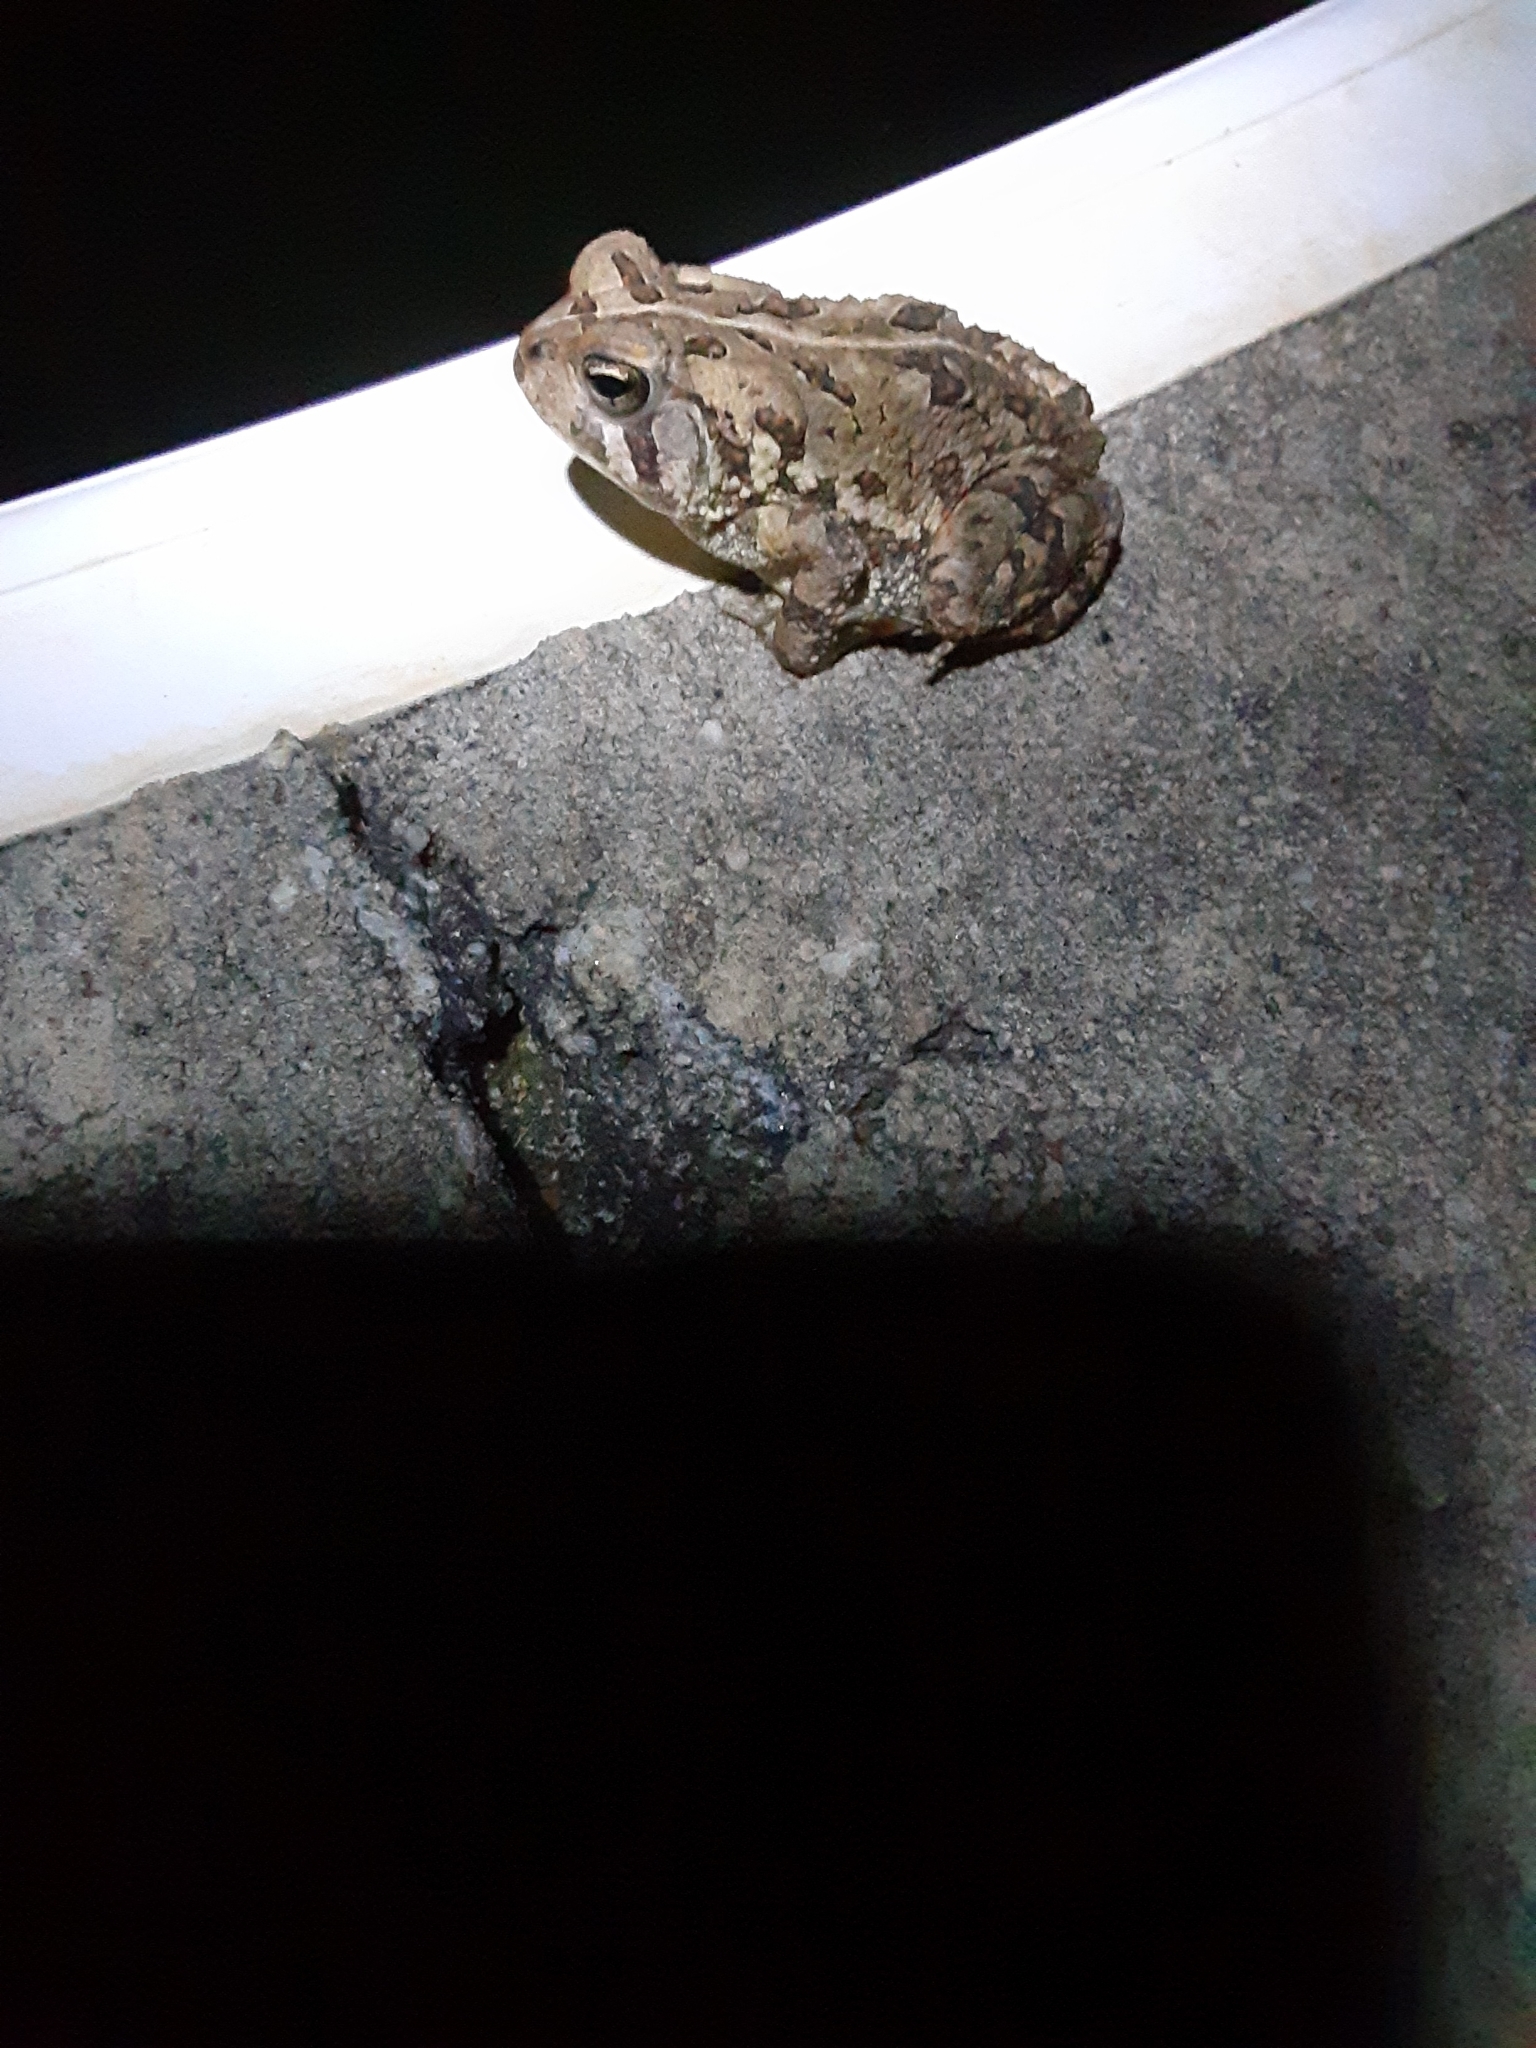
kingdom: Animalia
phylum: Chordata
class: Amphibia
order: Anura
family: Bufonidae
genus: Anaxyrus
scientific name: Anaxyrus fowleri
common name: Fowler's toad
